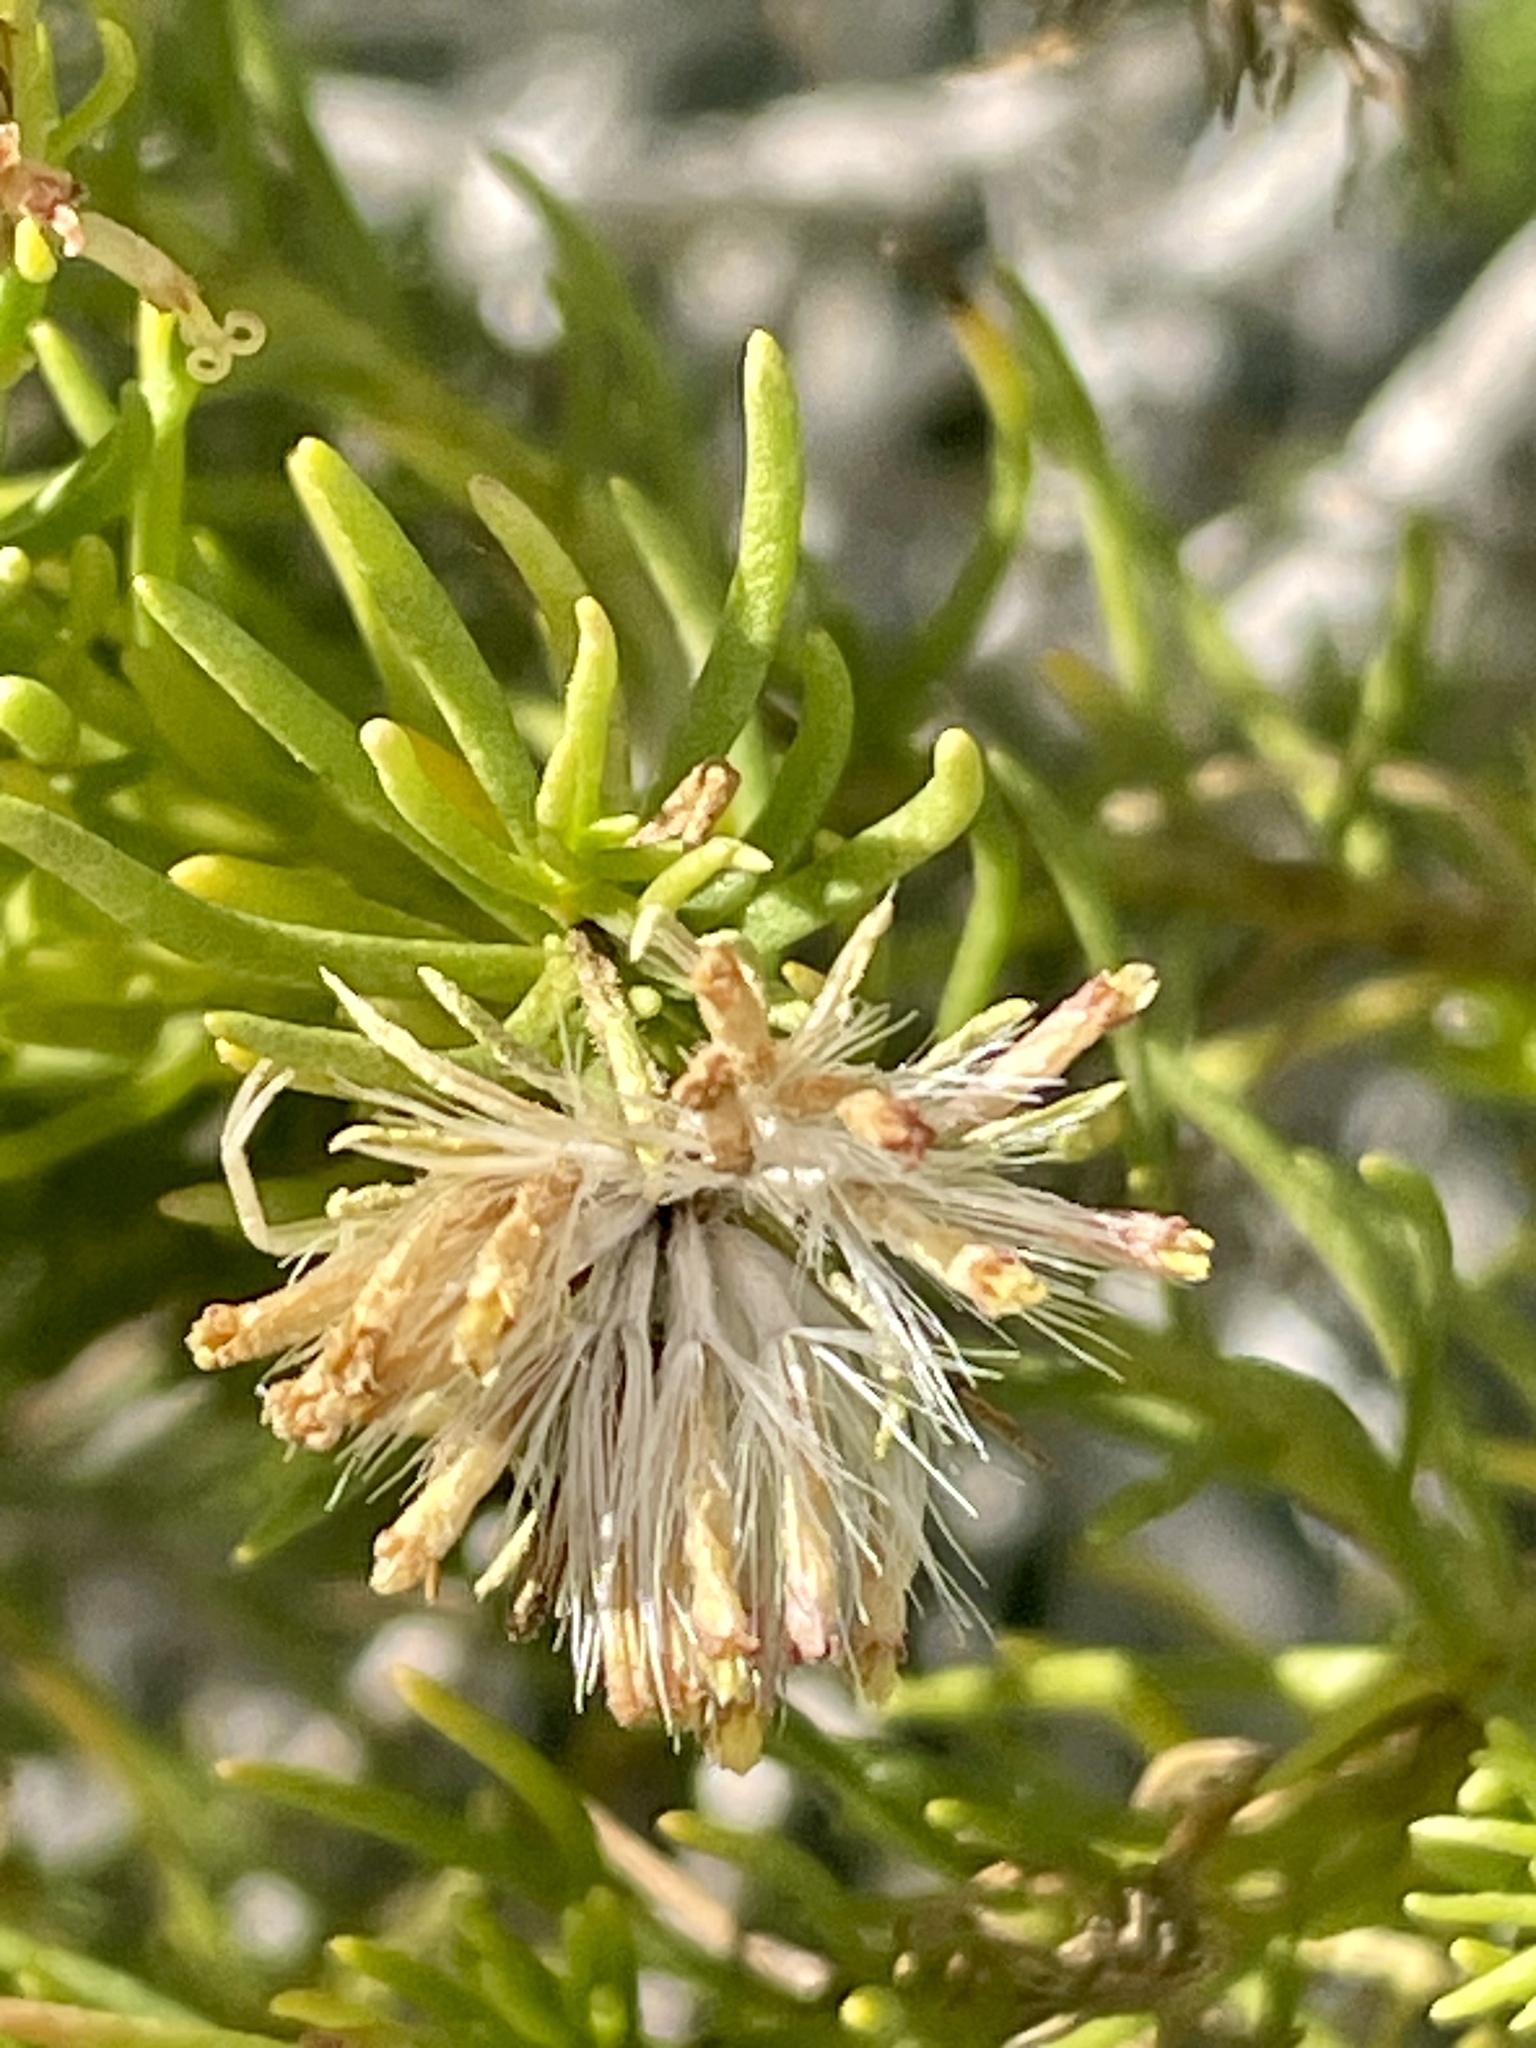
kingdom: Plantae
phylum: Tracheophyta
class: Magnoliopsida
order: Asterales
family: Asteraceae
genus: Peucephyllum
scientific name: Peucephyllum schottii
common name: Pygmy-cedar
